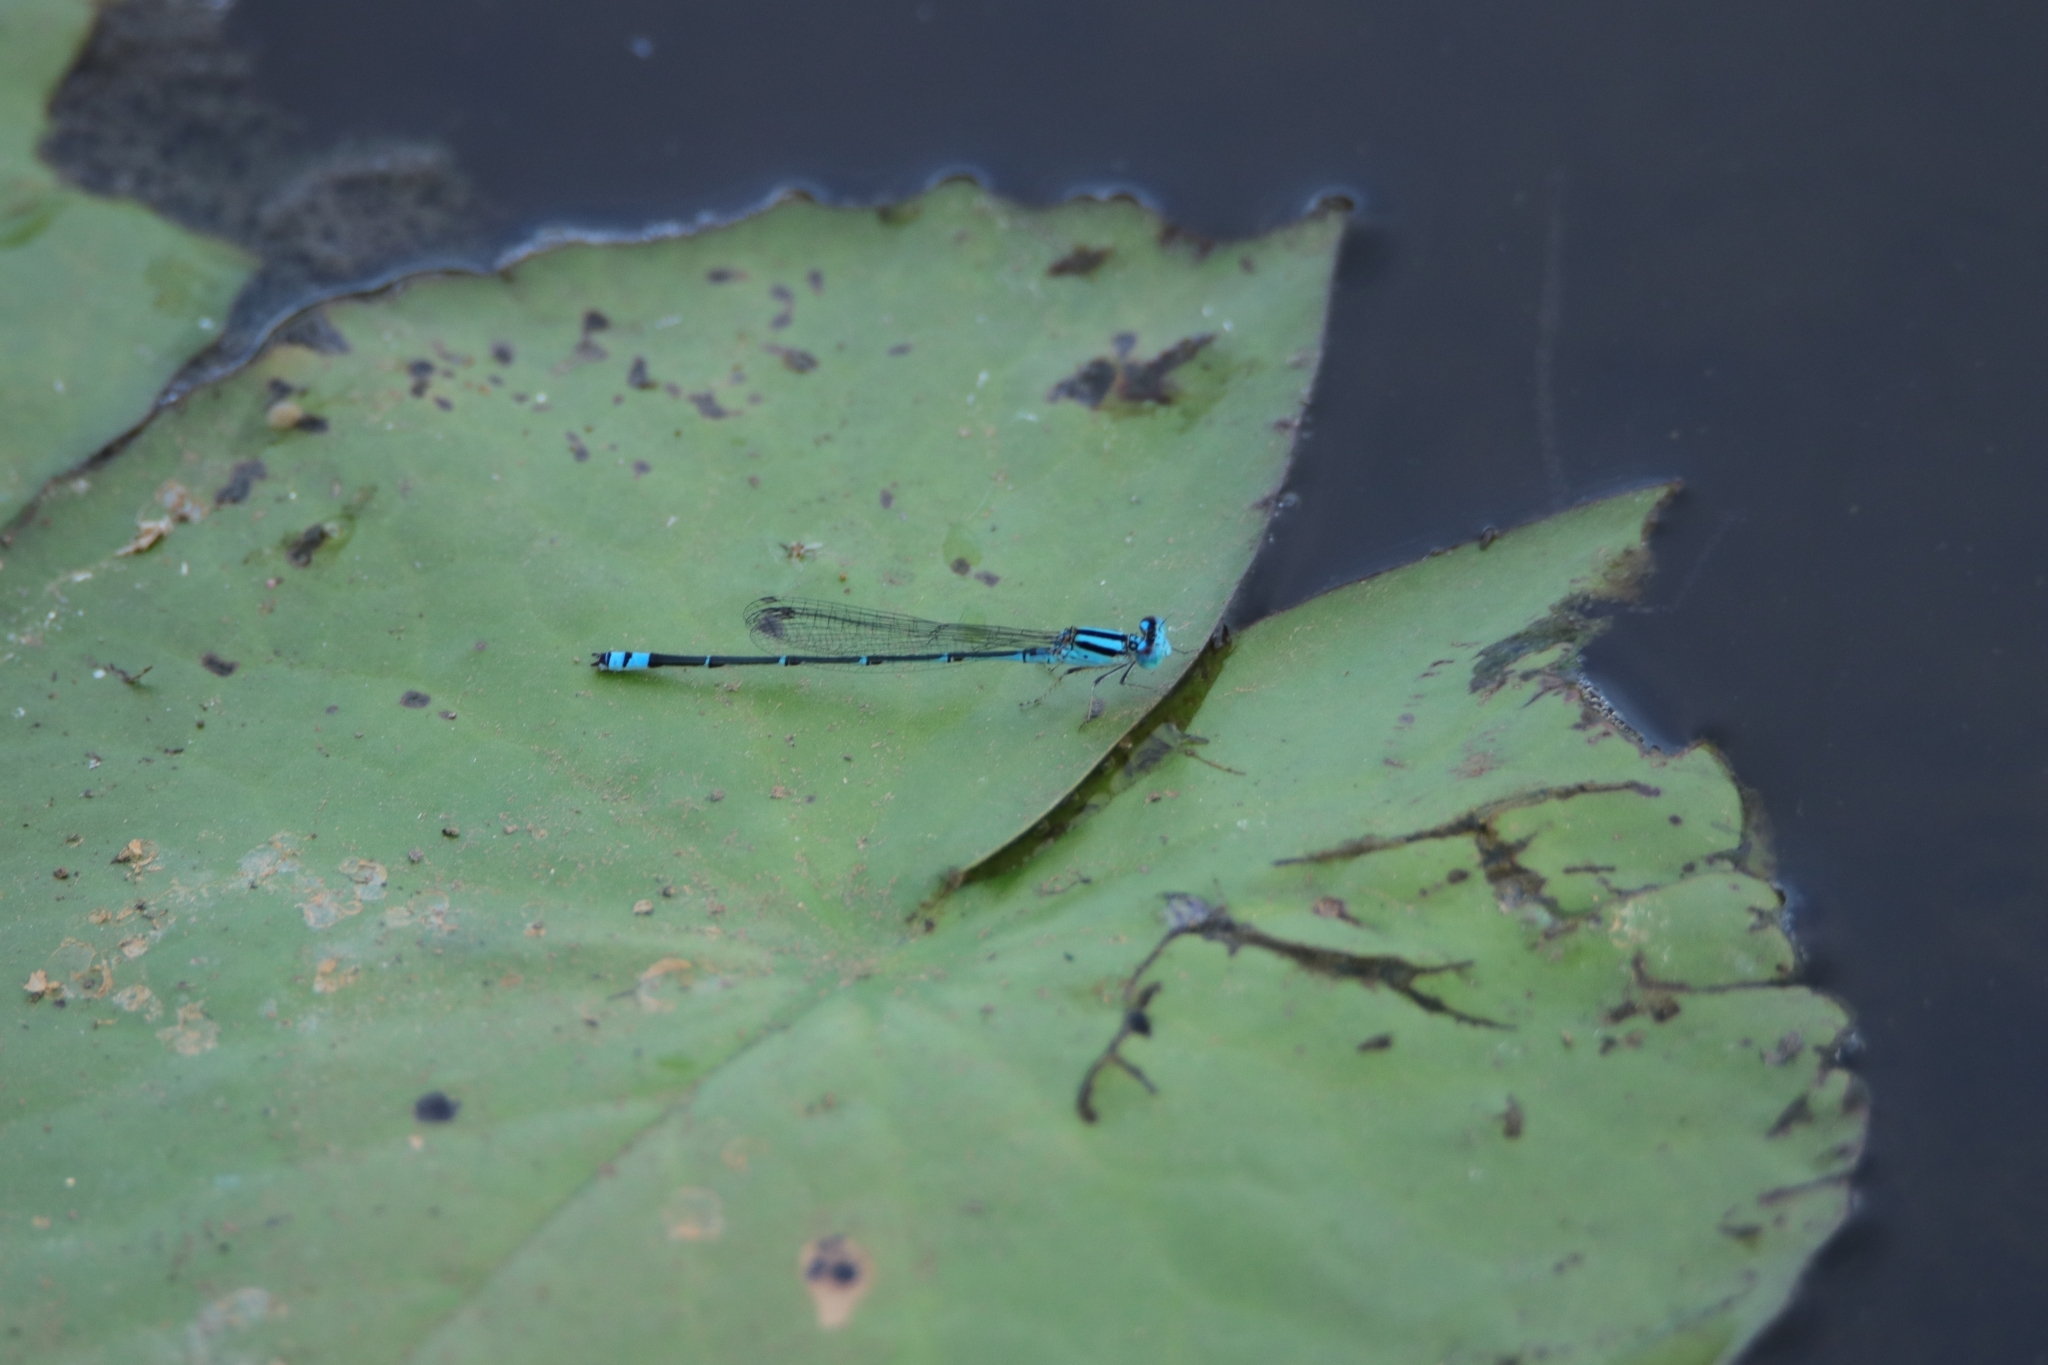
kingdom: Animalia
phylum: Arthropoda
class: Insecta
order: Odonata
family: Coenagrionidae
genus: Pseudagrion
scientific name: Pseudagrion microcephalum
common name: Blue riverdamsel
